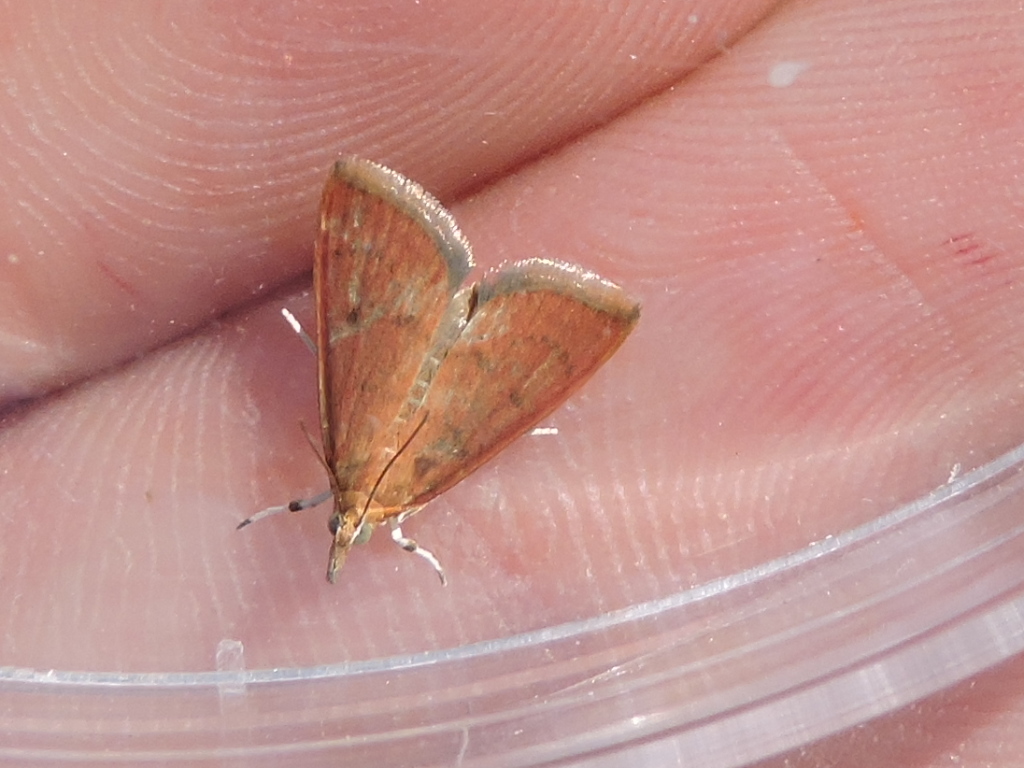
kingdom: Animalia
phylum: Arthropoda
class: Insecta
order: Lepidoptera
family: Crambidae
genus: Udea
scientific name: Udea rubigalis
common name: Celery leaftier moth
